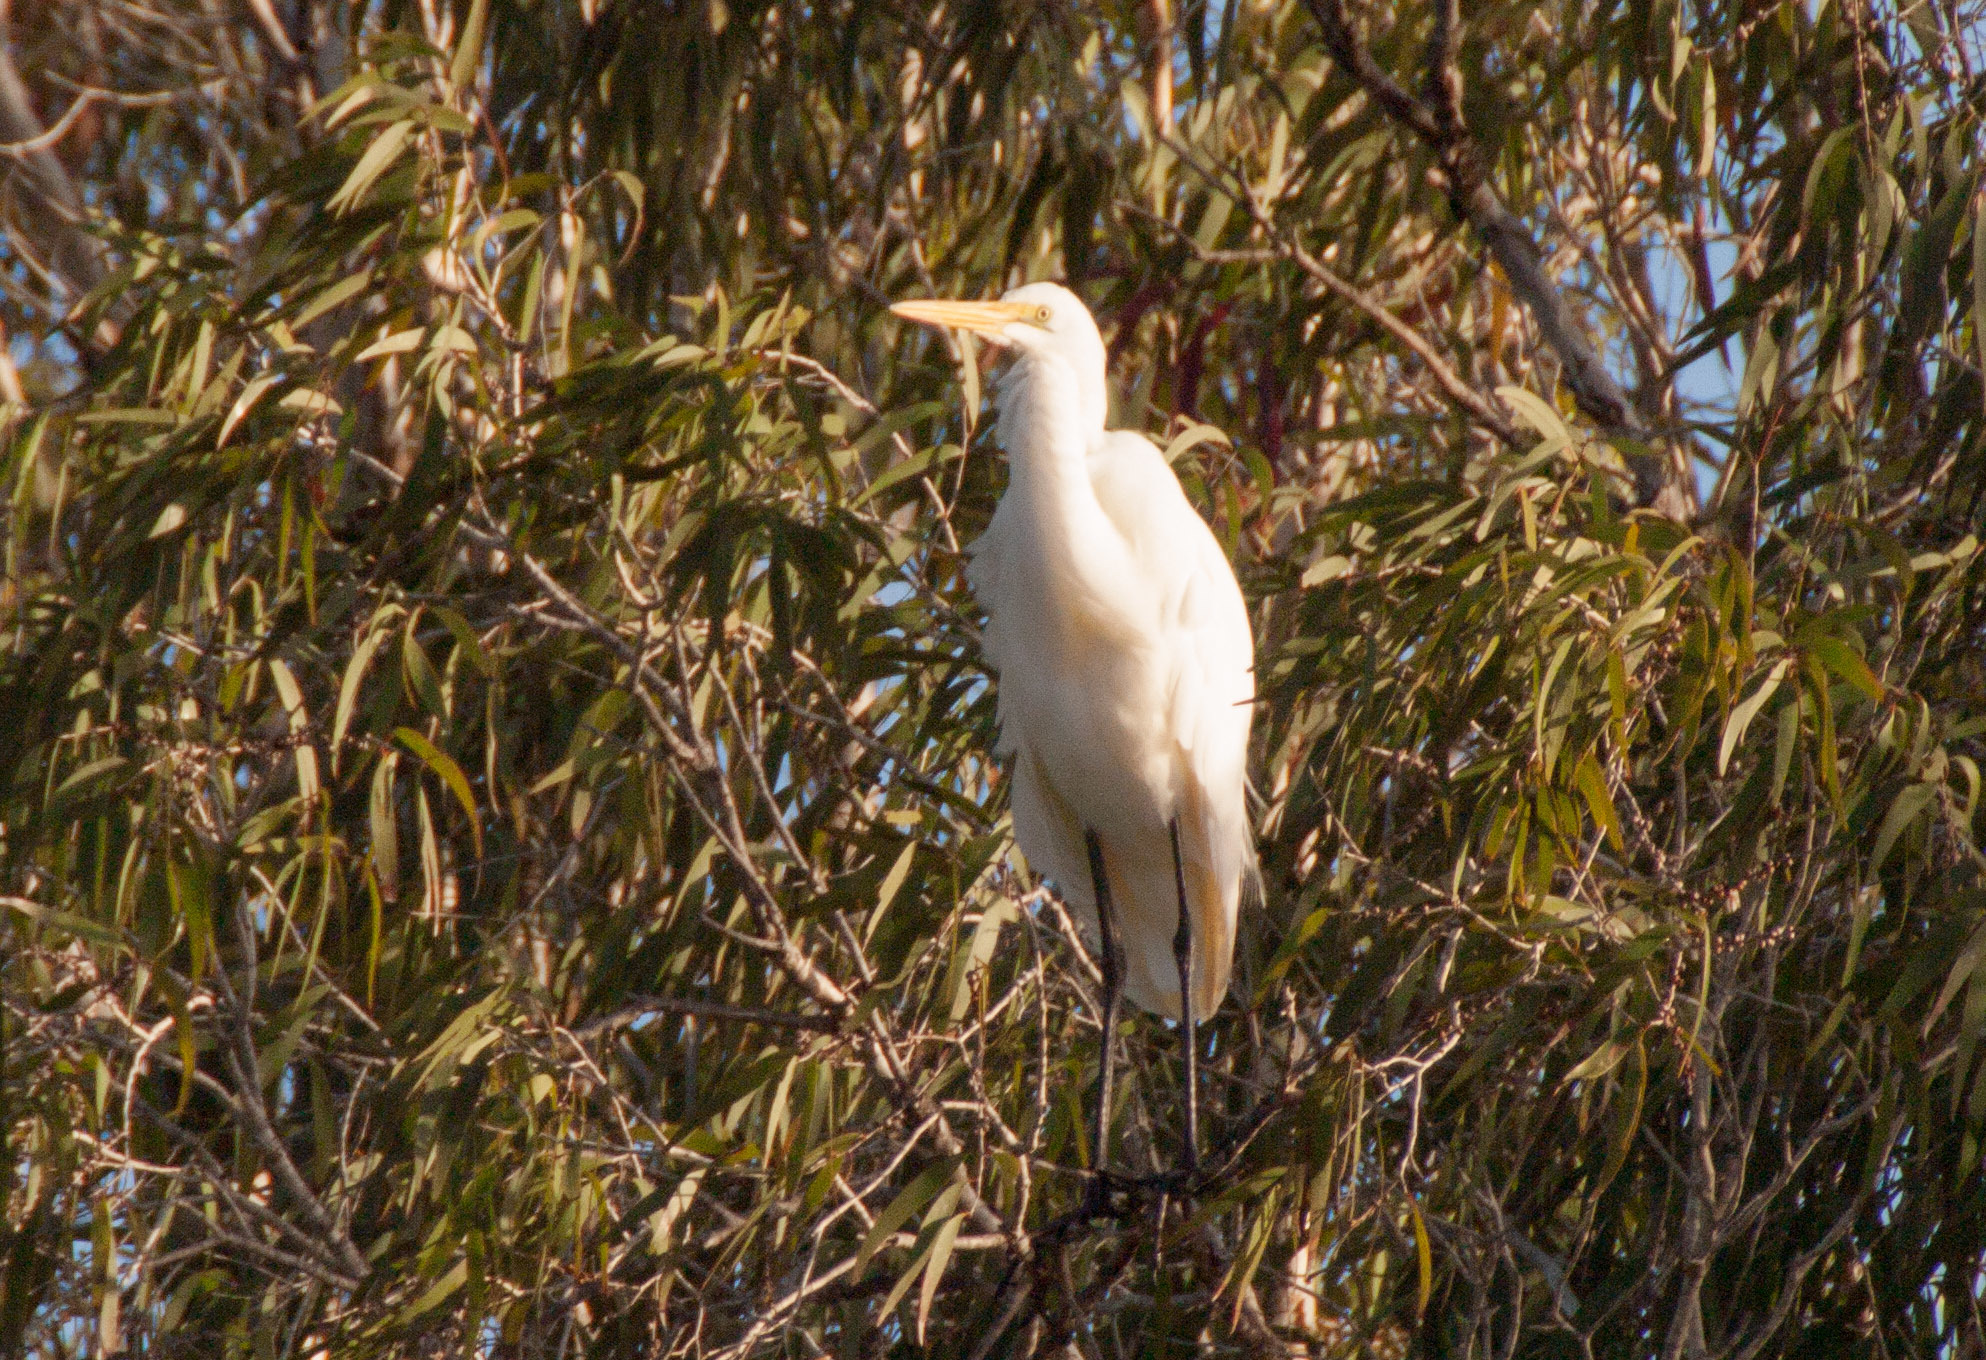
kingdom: Animalia
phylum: Chordata
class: Aves
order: Pelecaniformes
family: Ardeidae
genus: Ardea
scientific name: Ardea modesta
